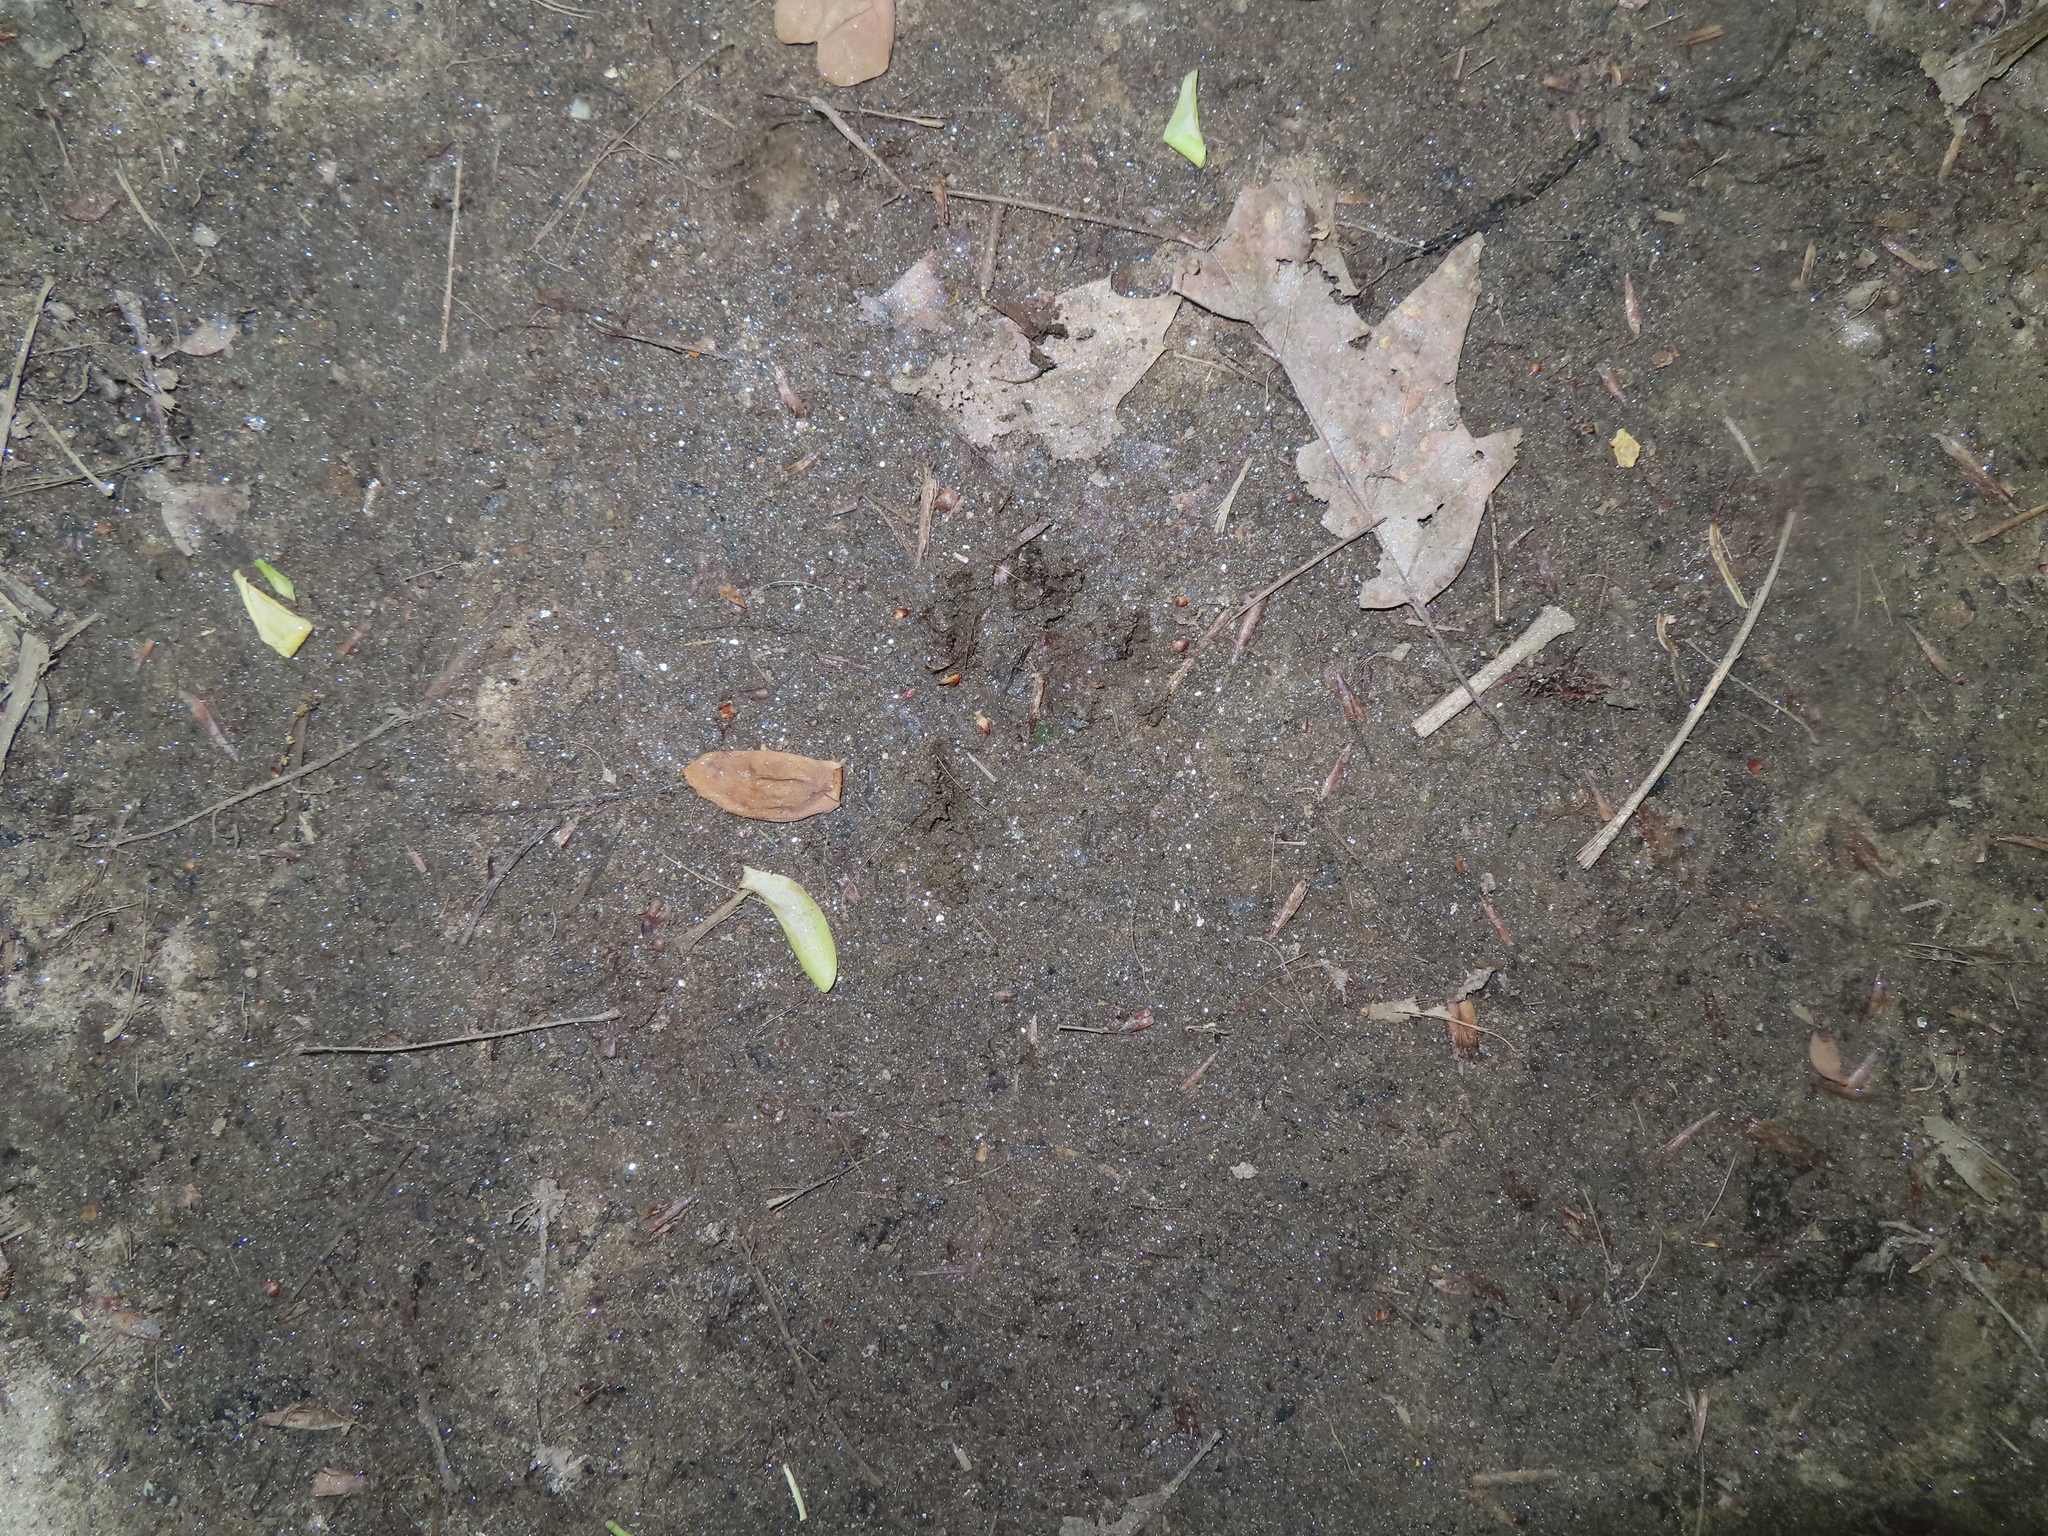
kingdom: Animalia
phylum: Chordata
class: Mammalia
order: Carnivora
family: Procyonidae
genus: Procyon
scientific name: Procyon lotor
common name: Raccoon
